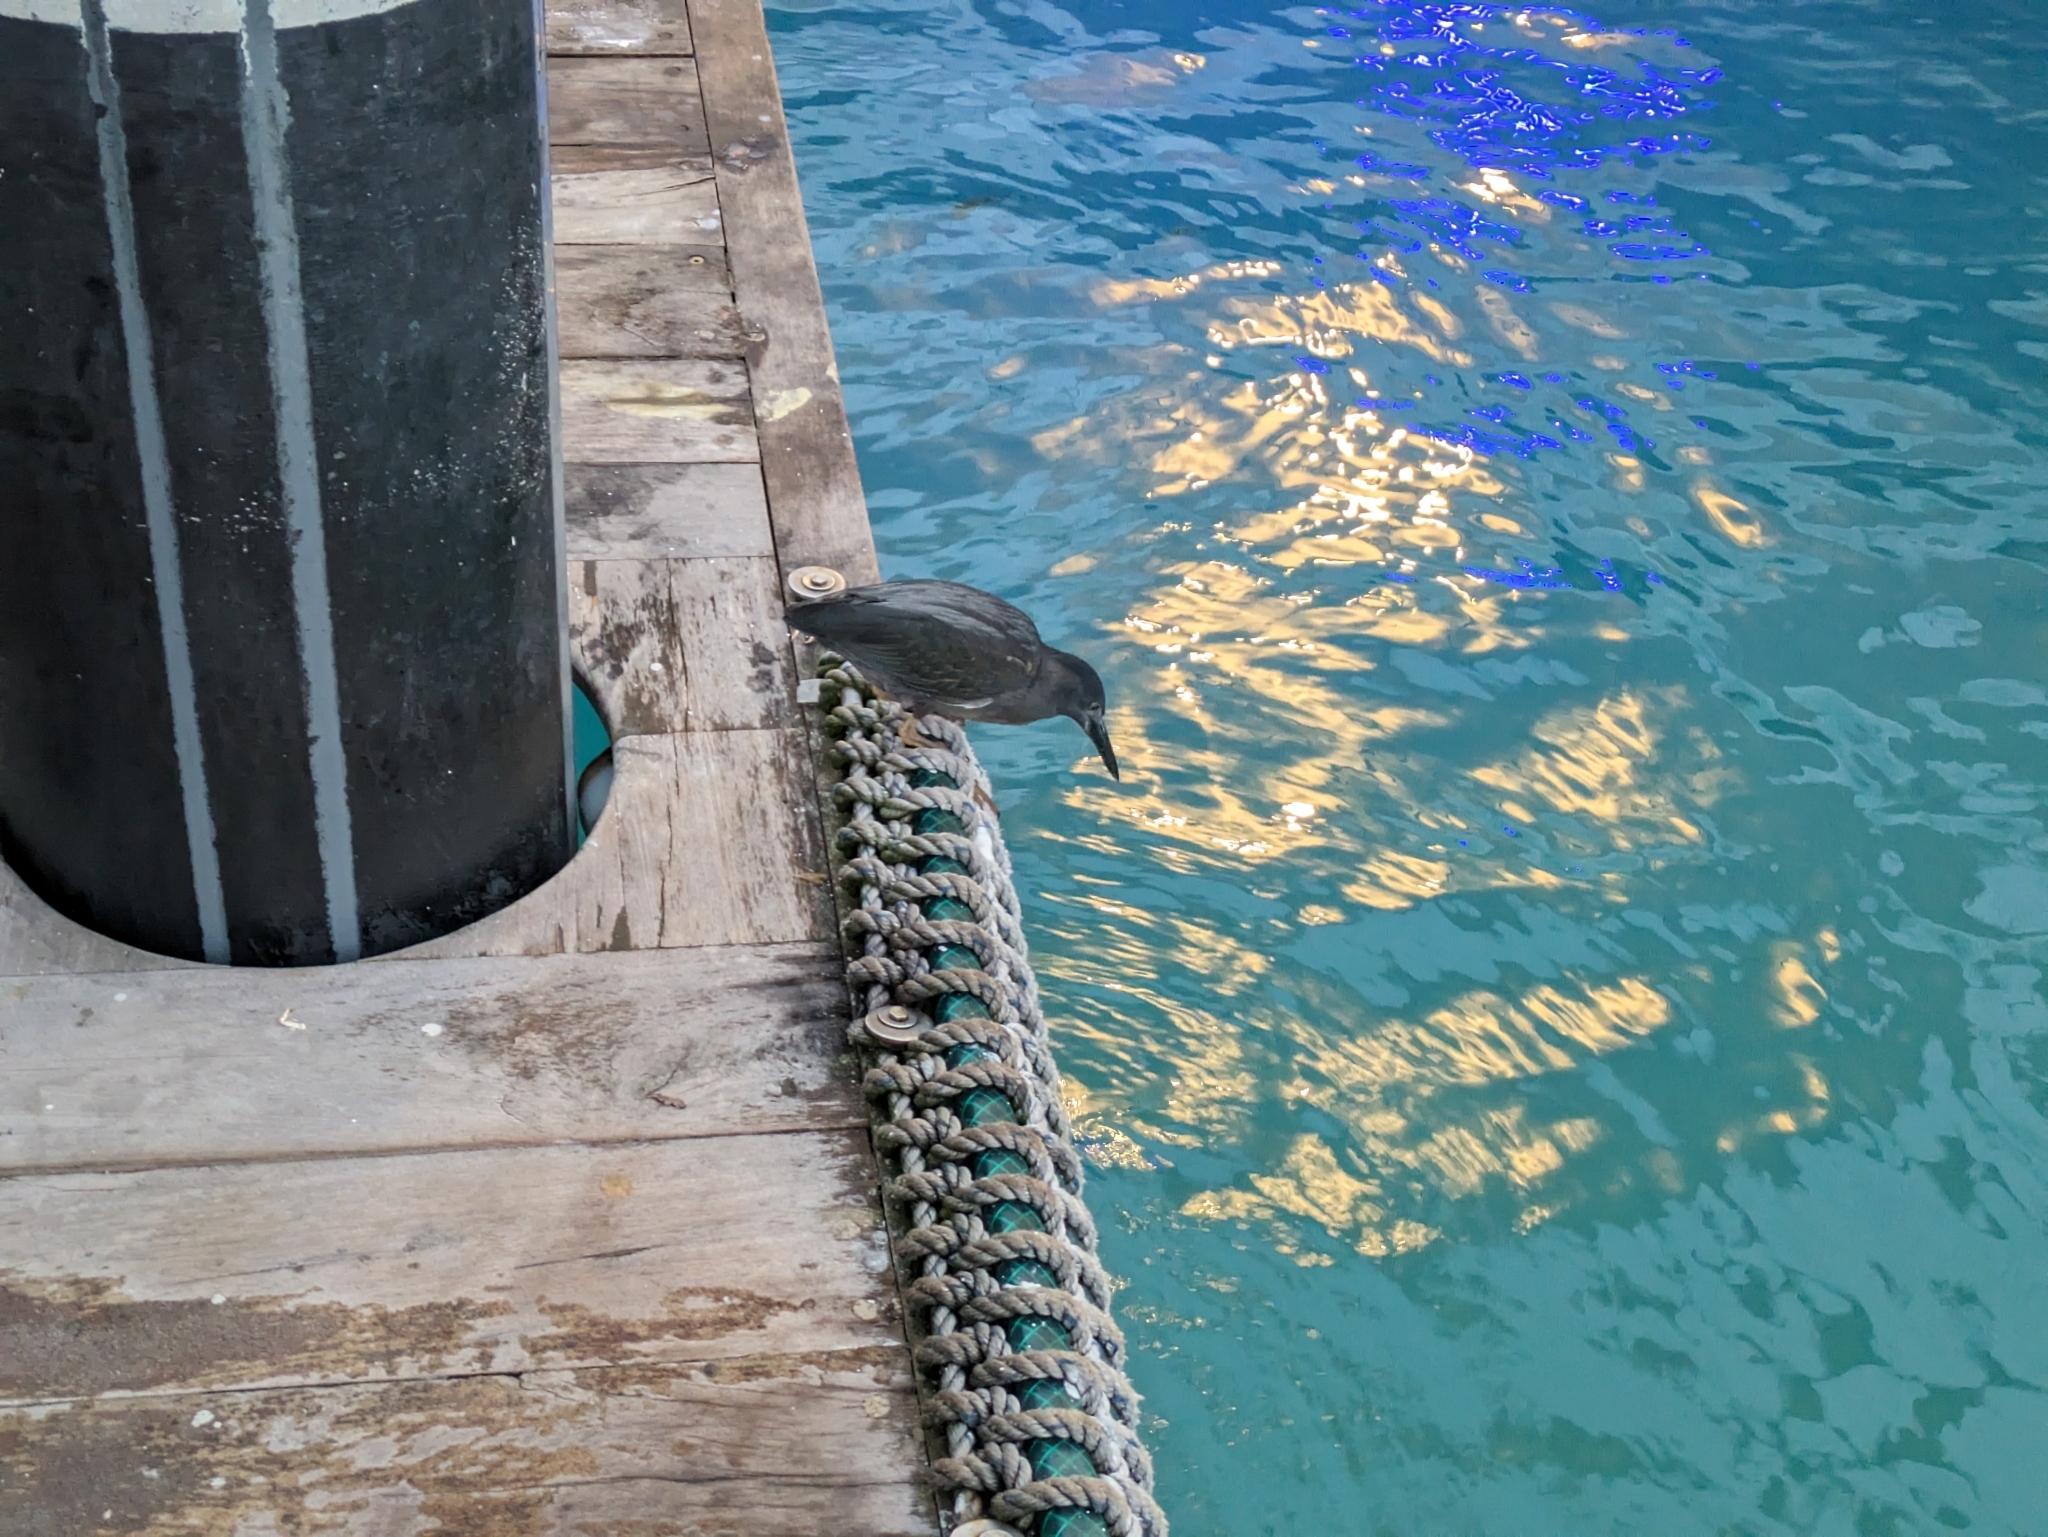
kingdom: Animalia
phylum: Chordata
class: Aves
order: Pelecaniformes
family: Ardeidae
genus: Butorides
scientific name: Butorides striata
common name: Striated heron
